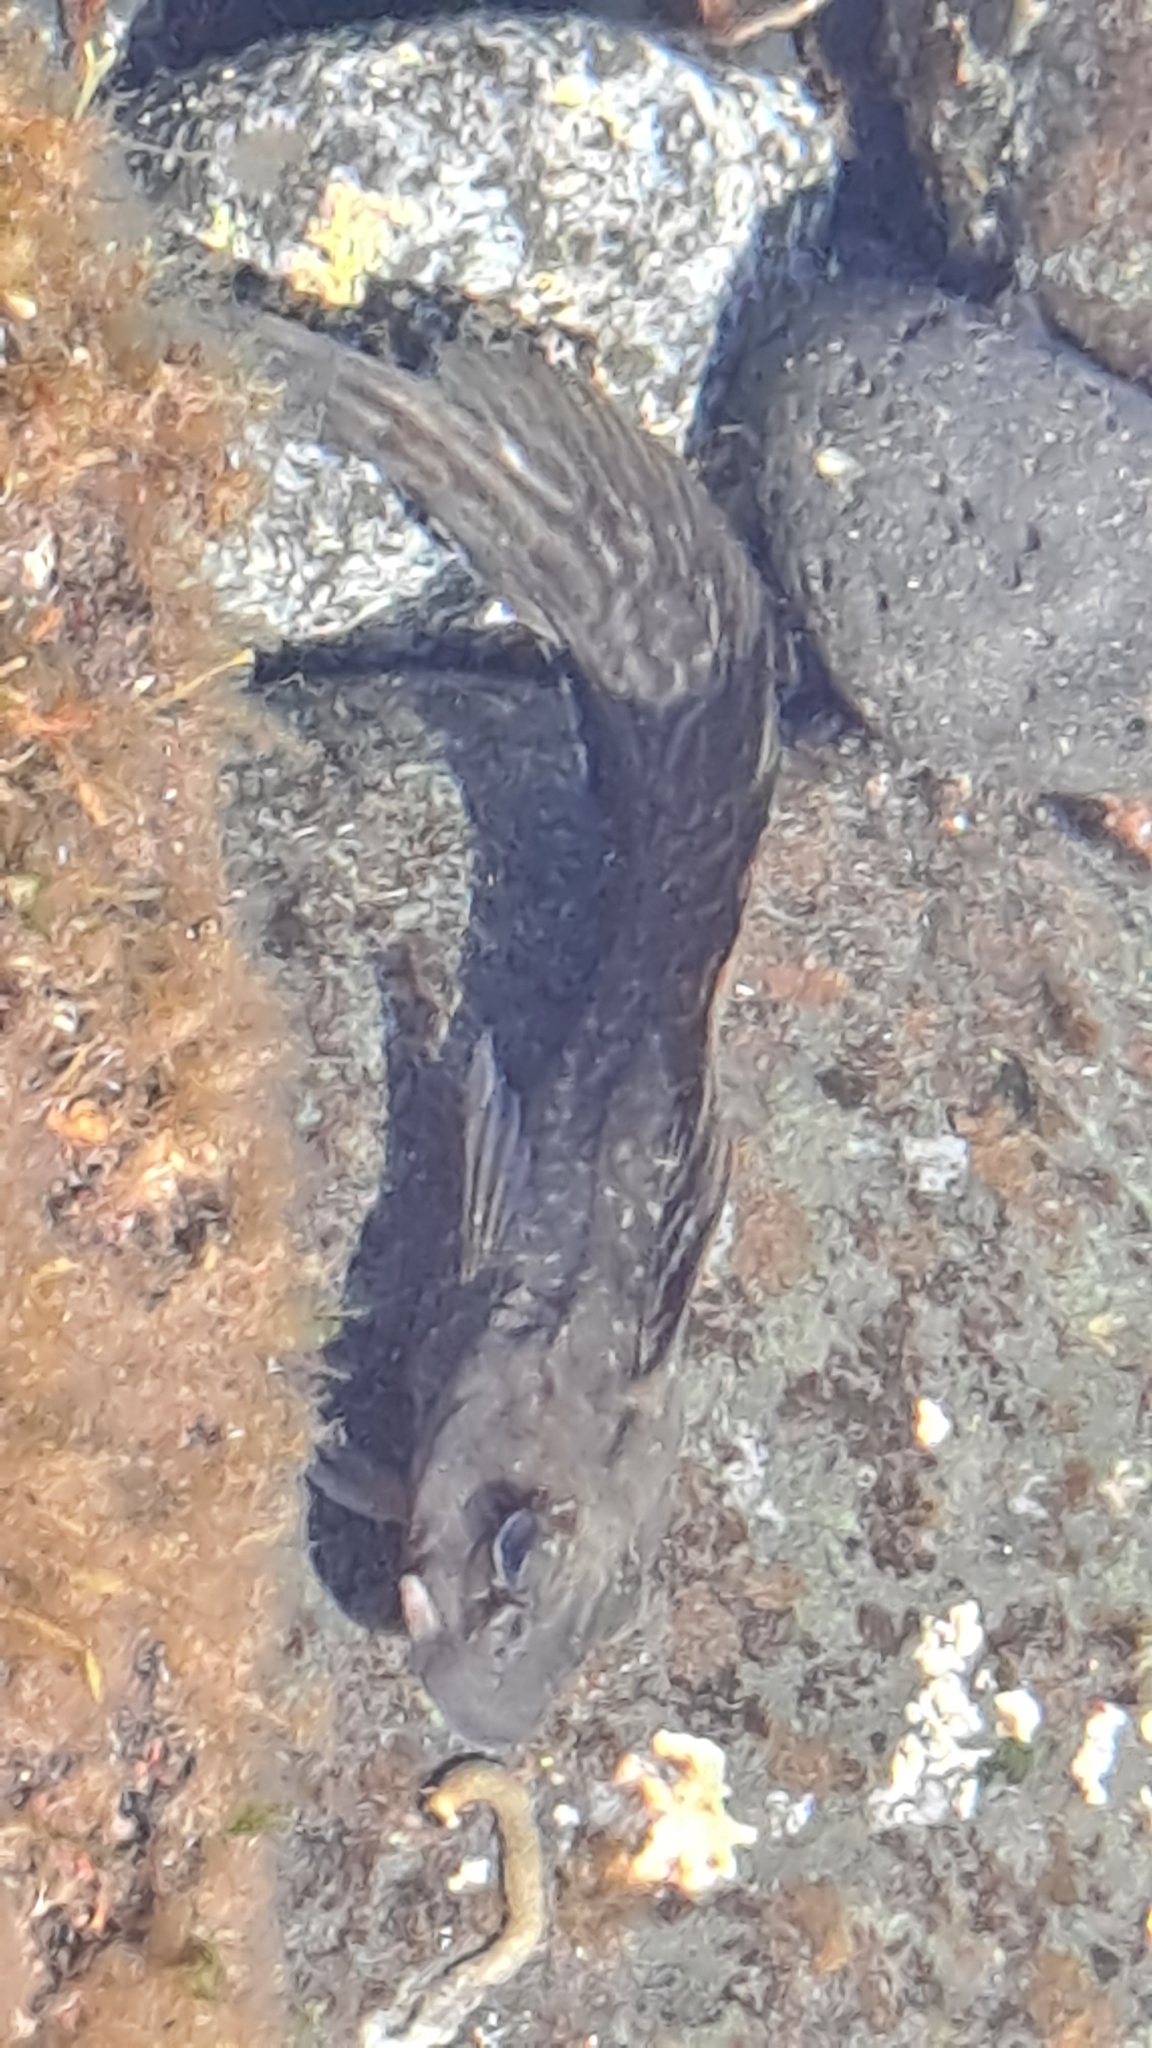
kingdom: Animalia
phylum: Chordata
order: Perciformes
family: Blenniidae
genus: Parablennius
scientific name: Parablennius parvicornis
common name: Rock-pool blenny
